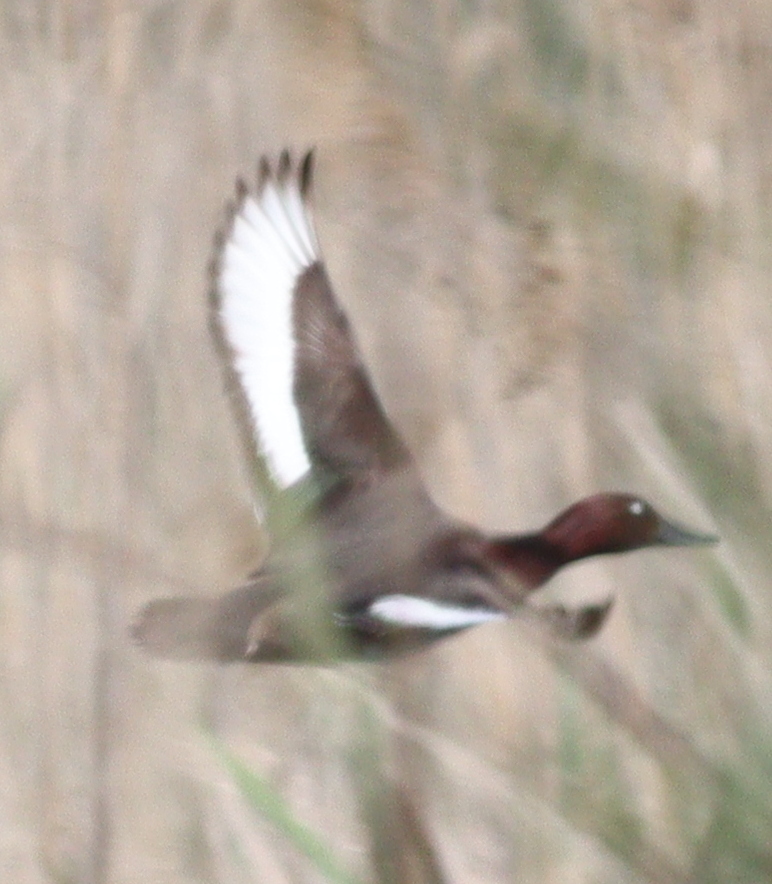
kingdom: Animalia
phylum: Chordata
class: Aves
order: Anseriformes
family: Anatidae
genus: Aythya
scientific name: Aythya nyroca
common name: Ferruginous duck
